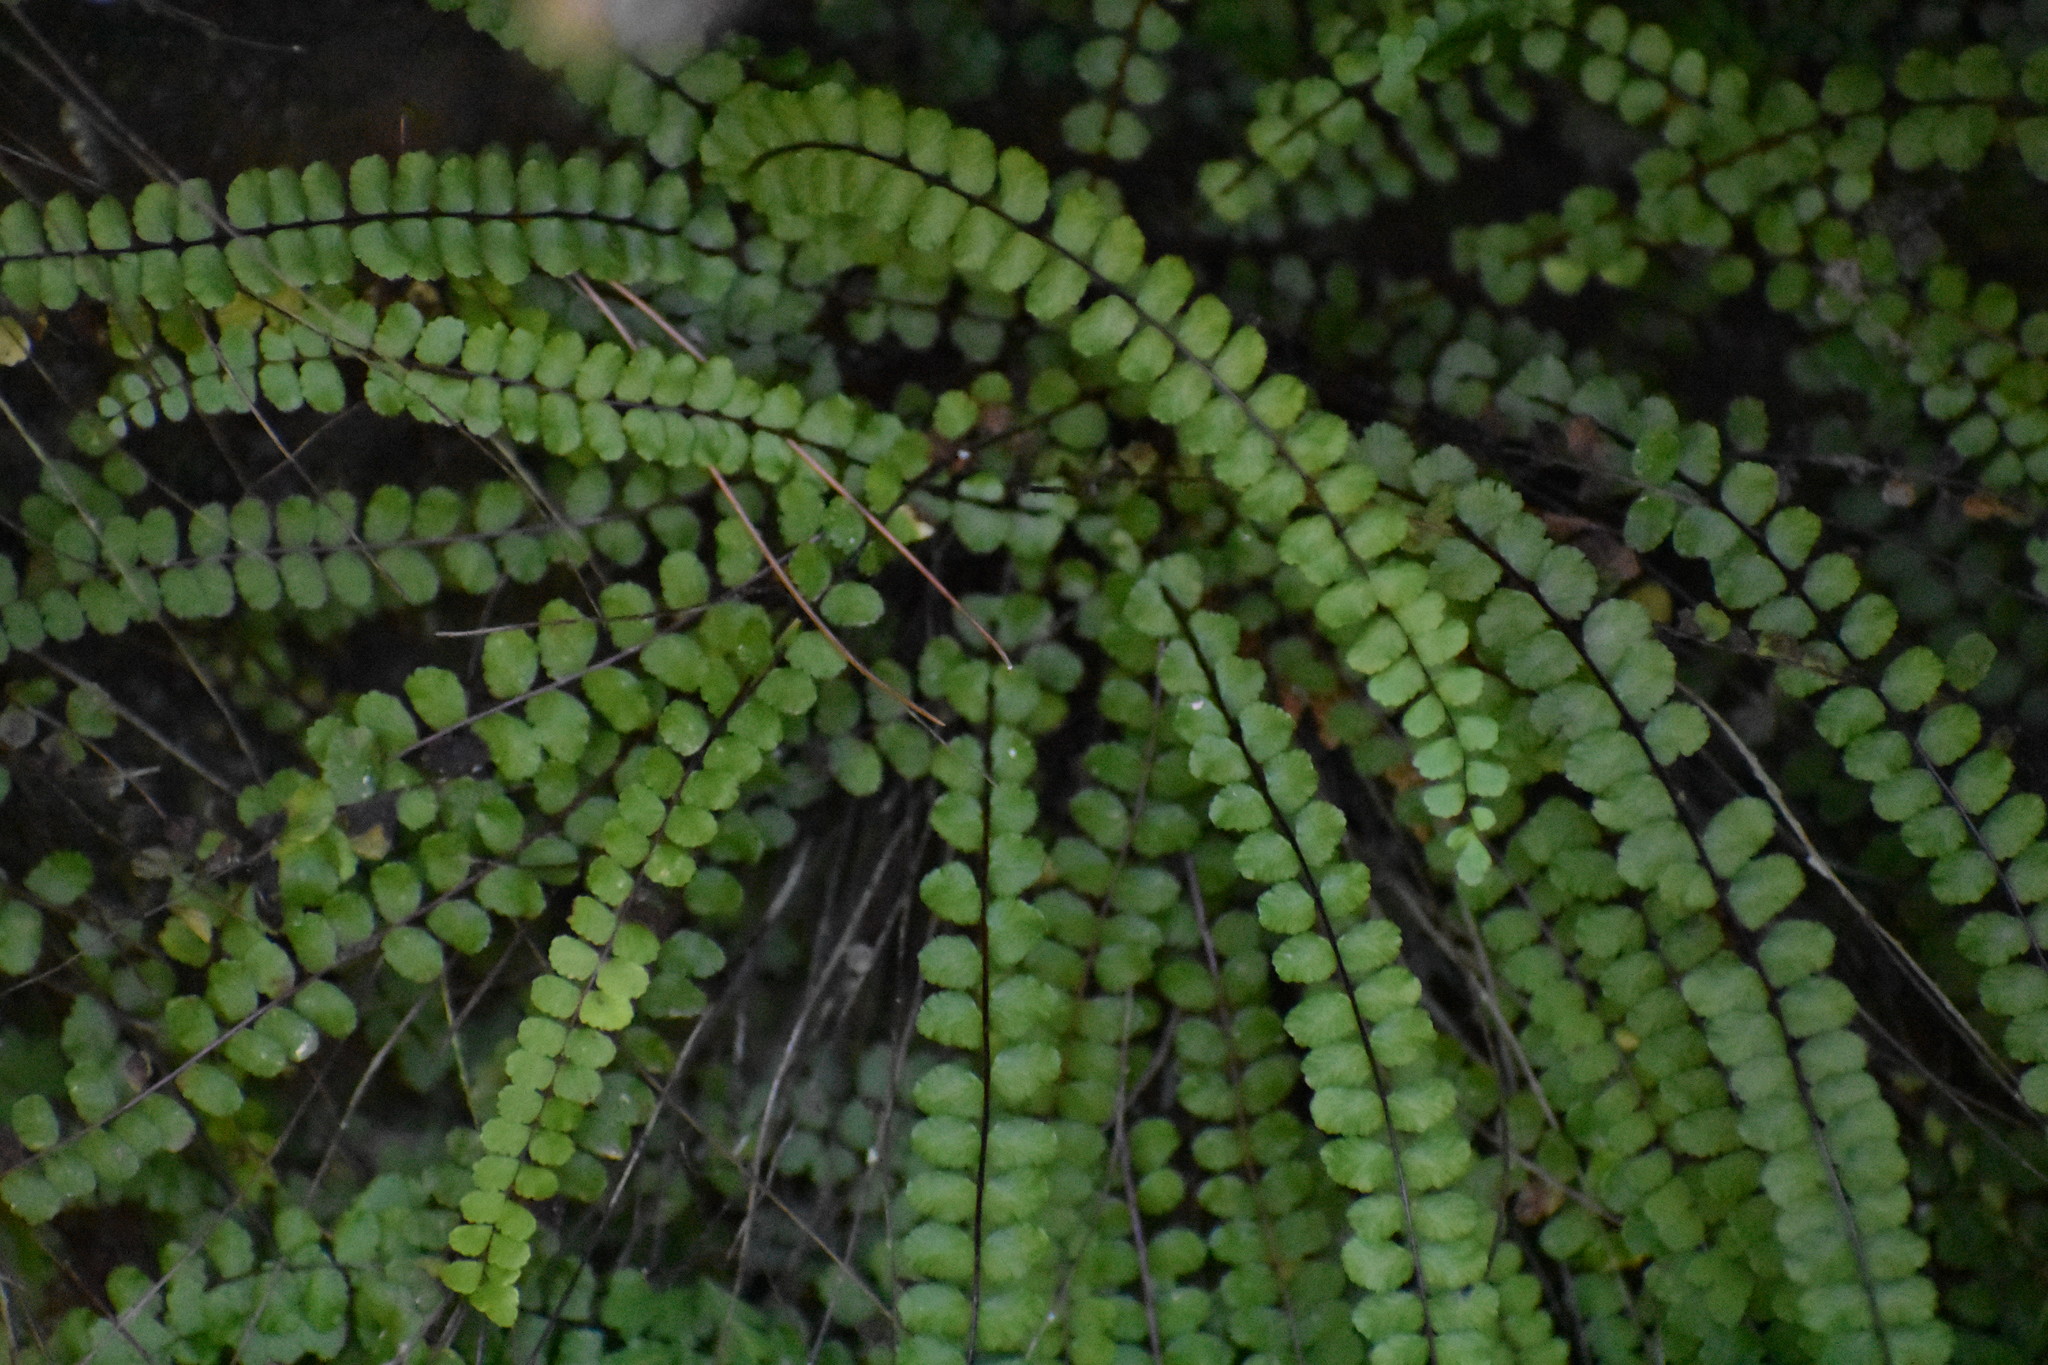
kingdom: Plantae
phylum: Tracheophyta
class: Polypodiopsida
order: Polypodiales
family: Aspleniaceae
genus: Asplenium
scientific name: Asplenium trichomanes
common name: Maidenhair spleenwort
